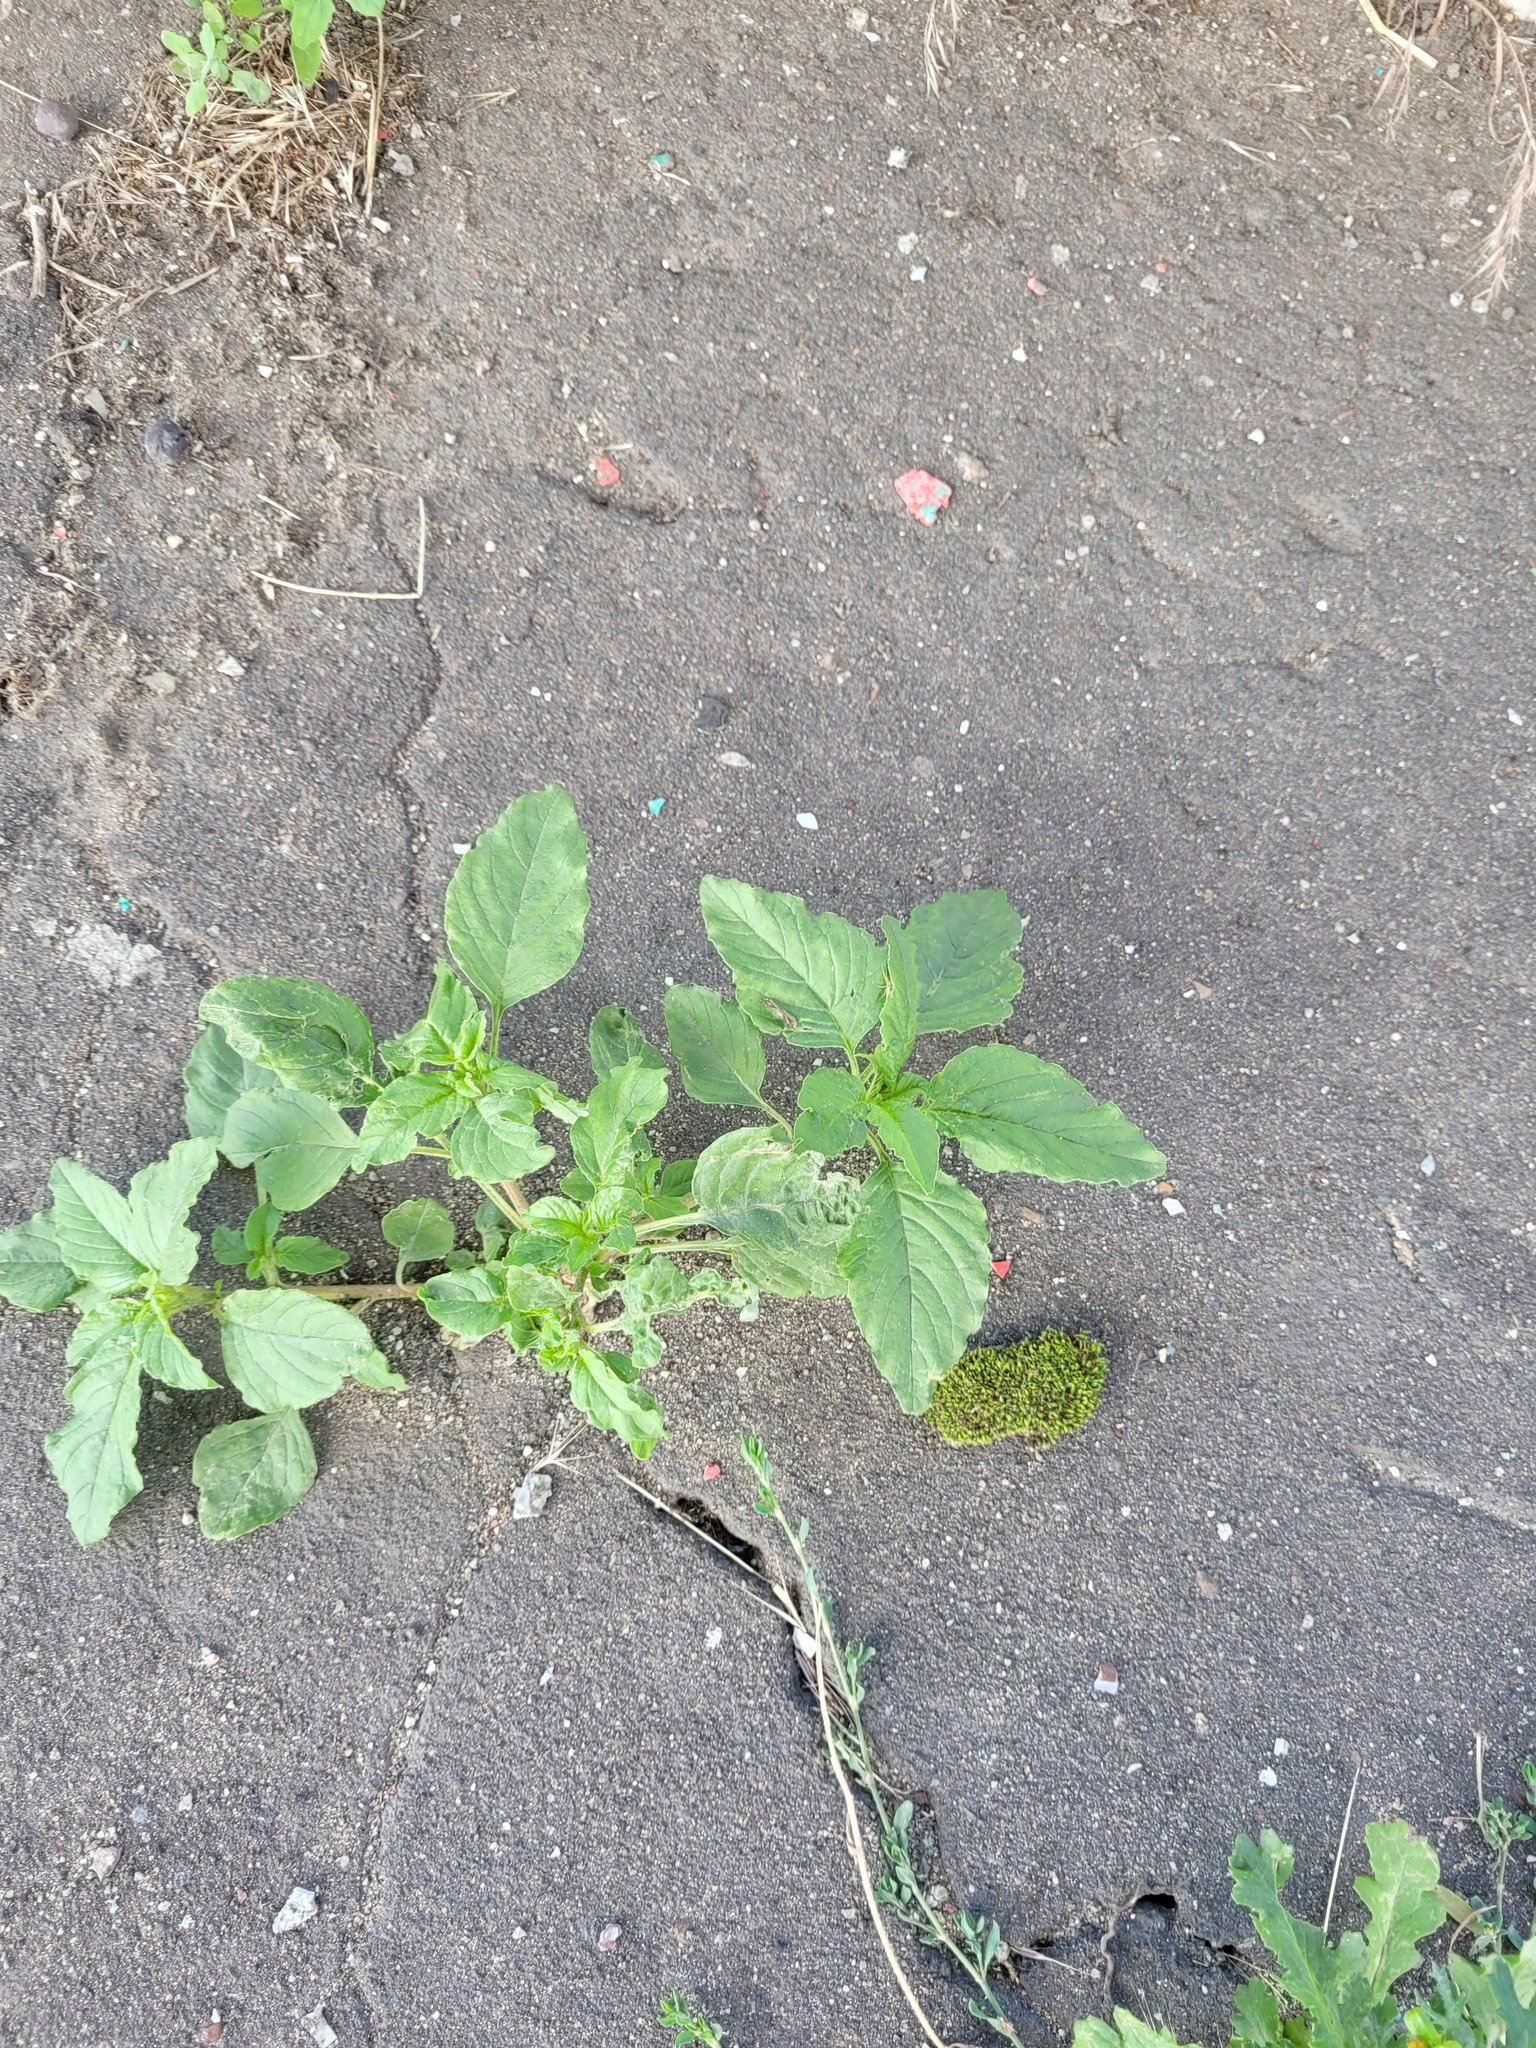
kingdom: Plantae
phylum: Tracheophyta
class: Magnoliopsida
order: Caryophyllales
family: Amaranthaceae
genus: Amaranthus
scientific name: Amaranthus retroflexus
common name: Redroot amaranth
